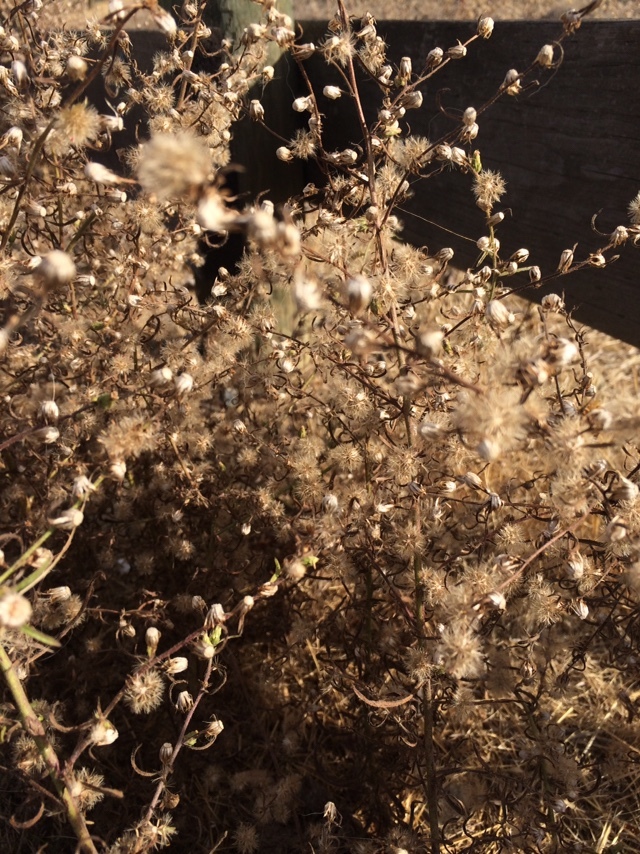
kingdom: Plantae
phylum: Tracheophyta
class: Magnoliopsida
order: Asterales
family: Asteraceae
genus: Dittrichia
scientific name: Dittrichia graveolens
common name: Stinking fleabane
